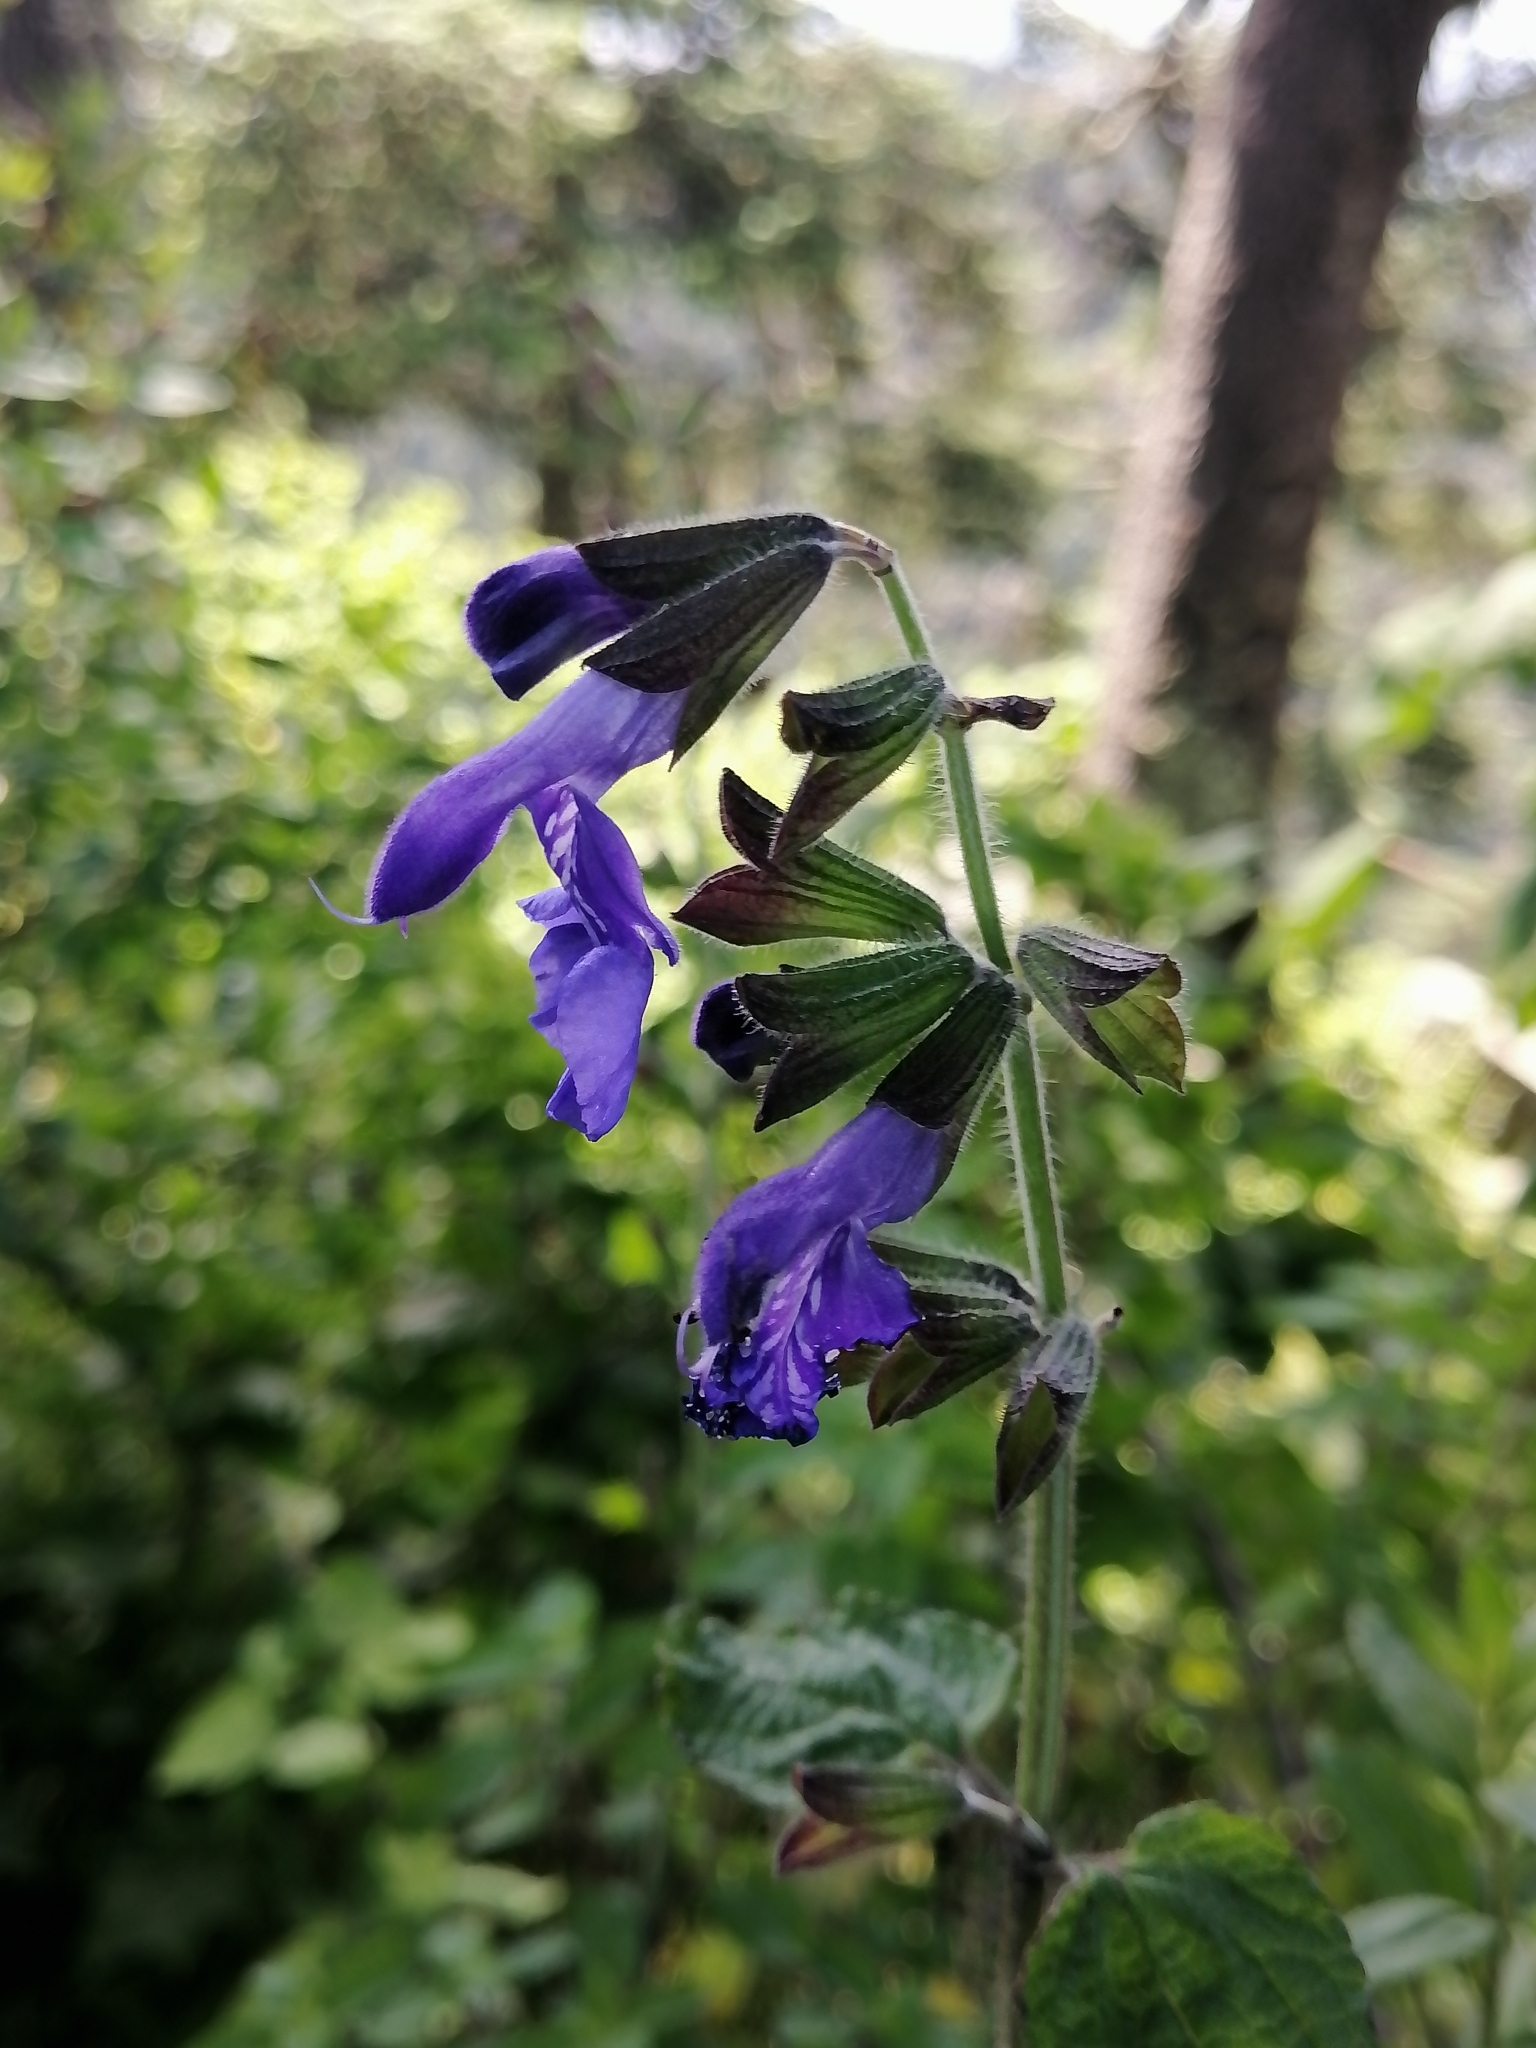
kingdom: Plantae
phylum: Tracheophyta
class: Magnoliopsida
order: Lamiales
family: Lamiaceae
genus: Salvia
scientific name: Salvia zamoranensis
